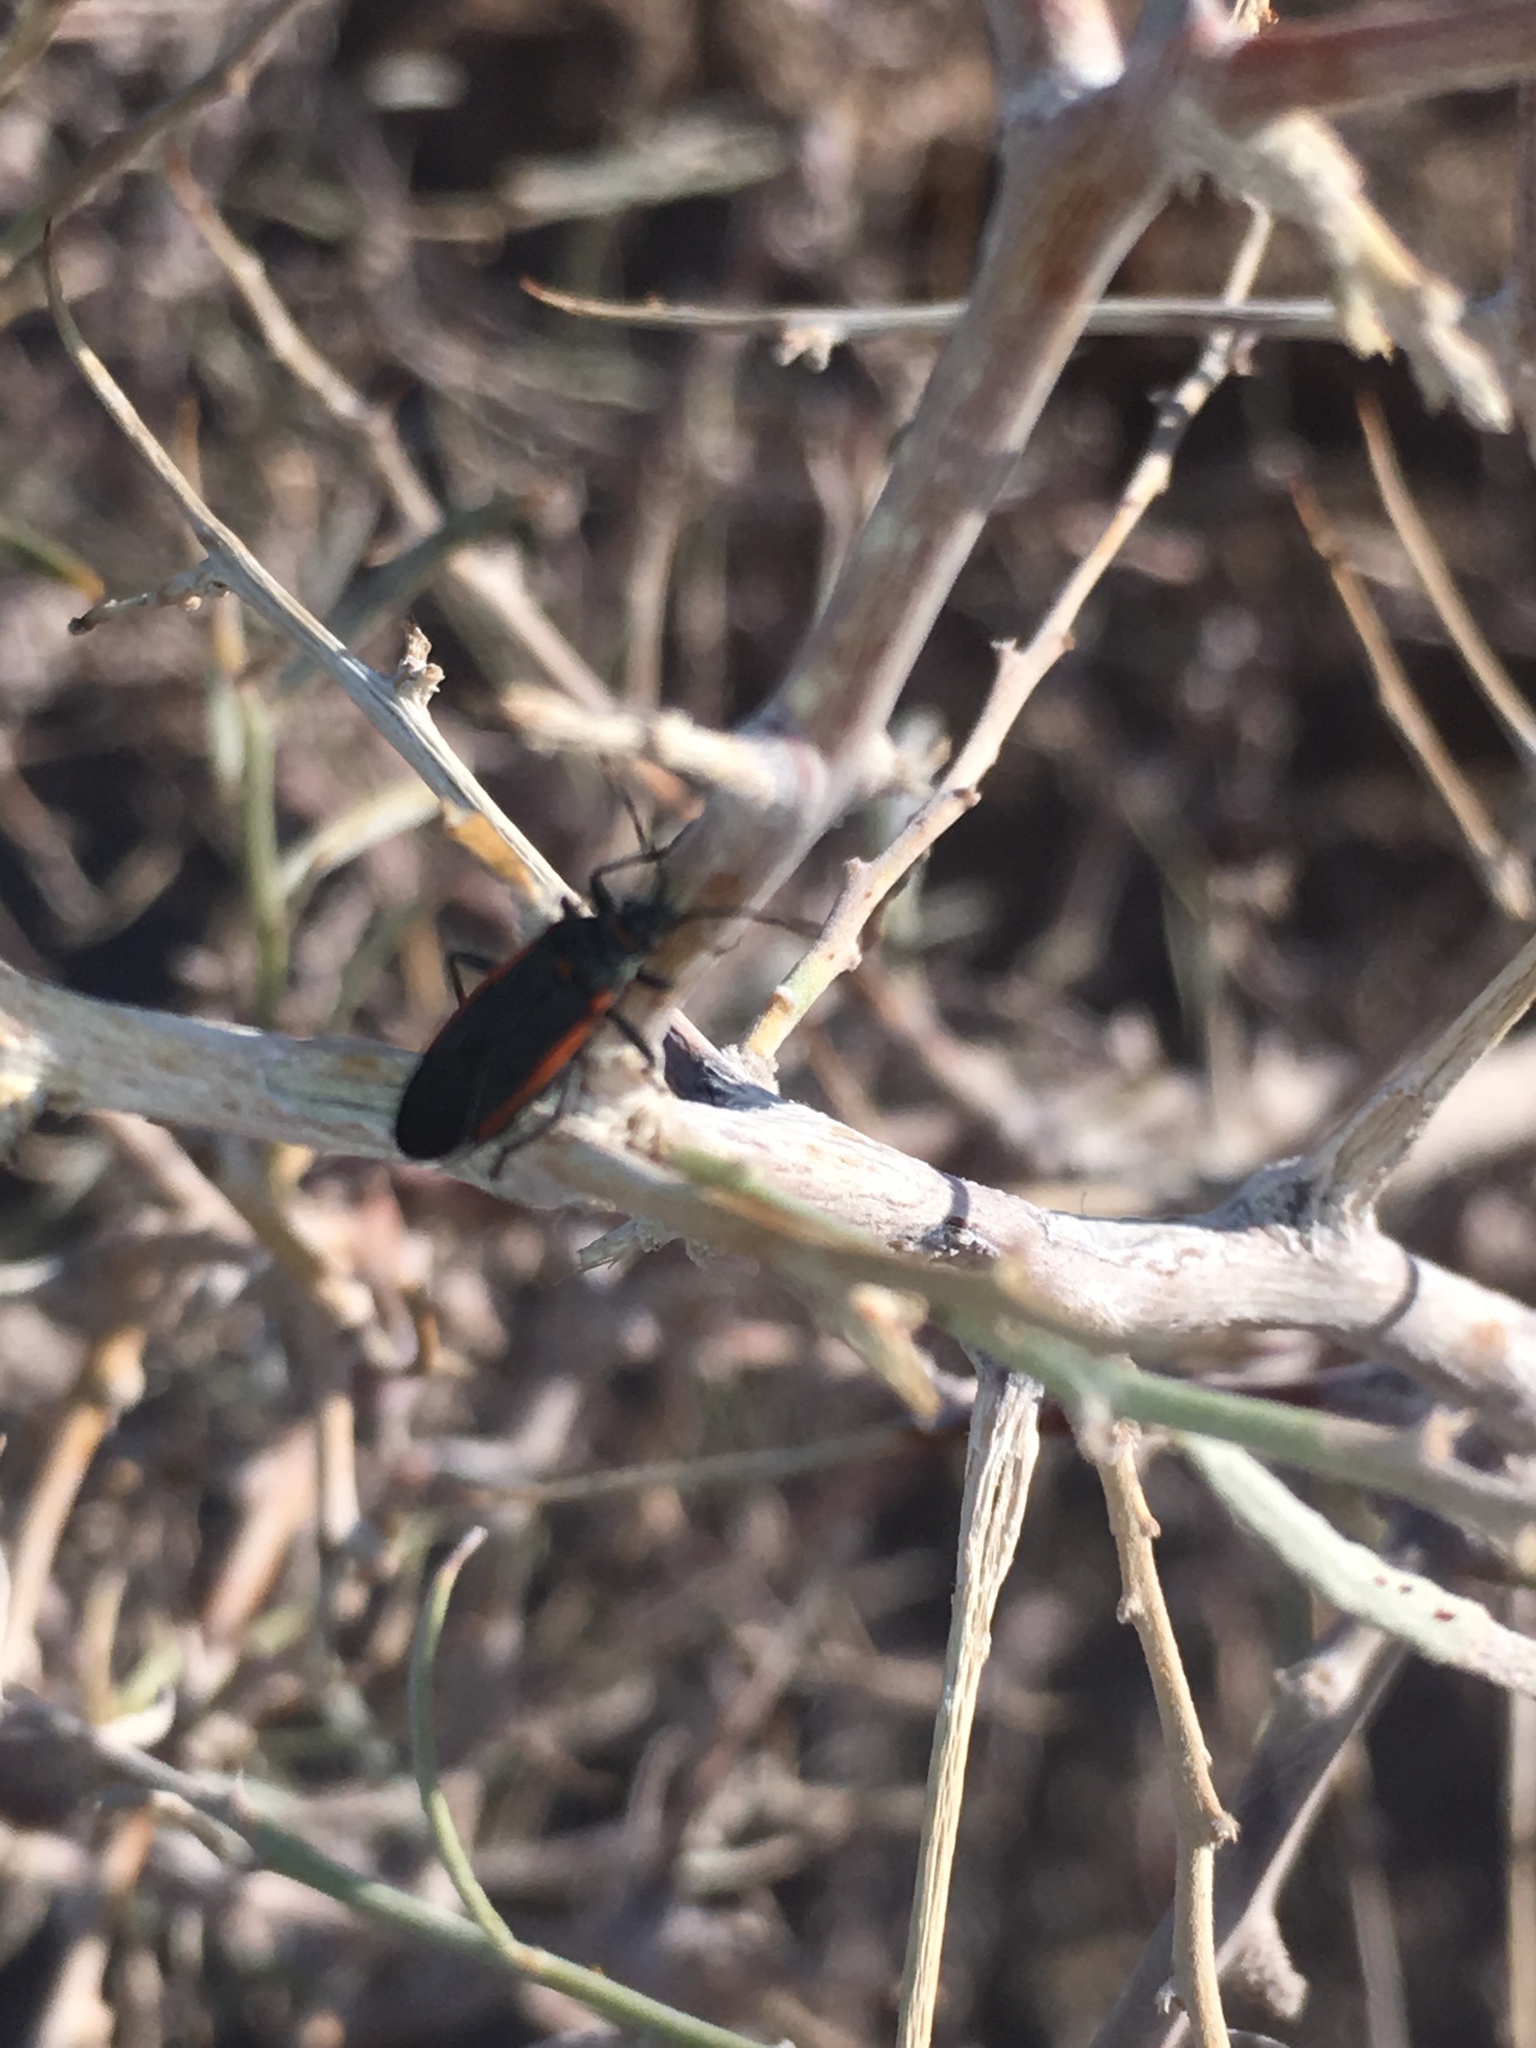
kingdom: Animalia
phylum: Arthropoda
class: Insecta
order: Hemiptera
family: Lygaeidae
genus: Melacoryphus
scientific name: Melacoryphus lateralis
